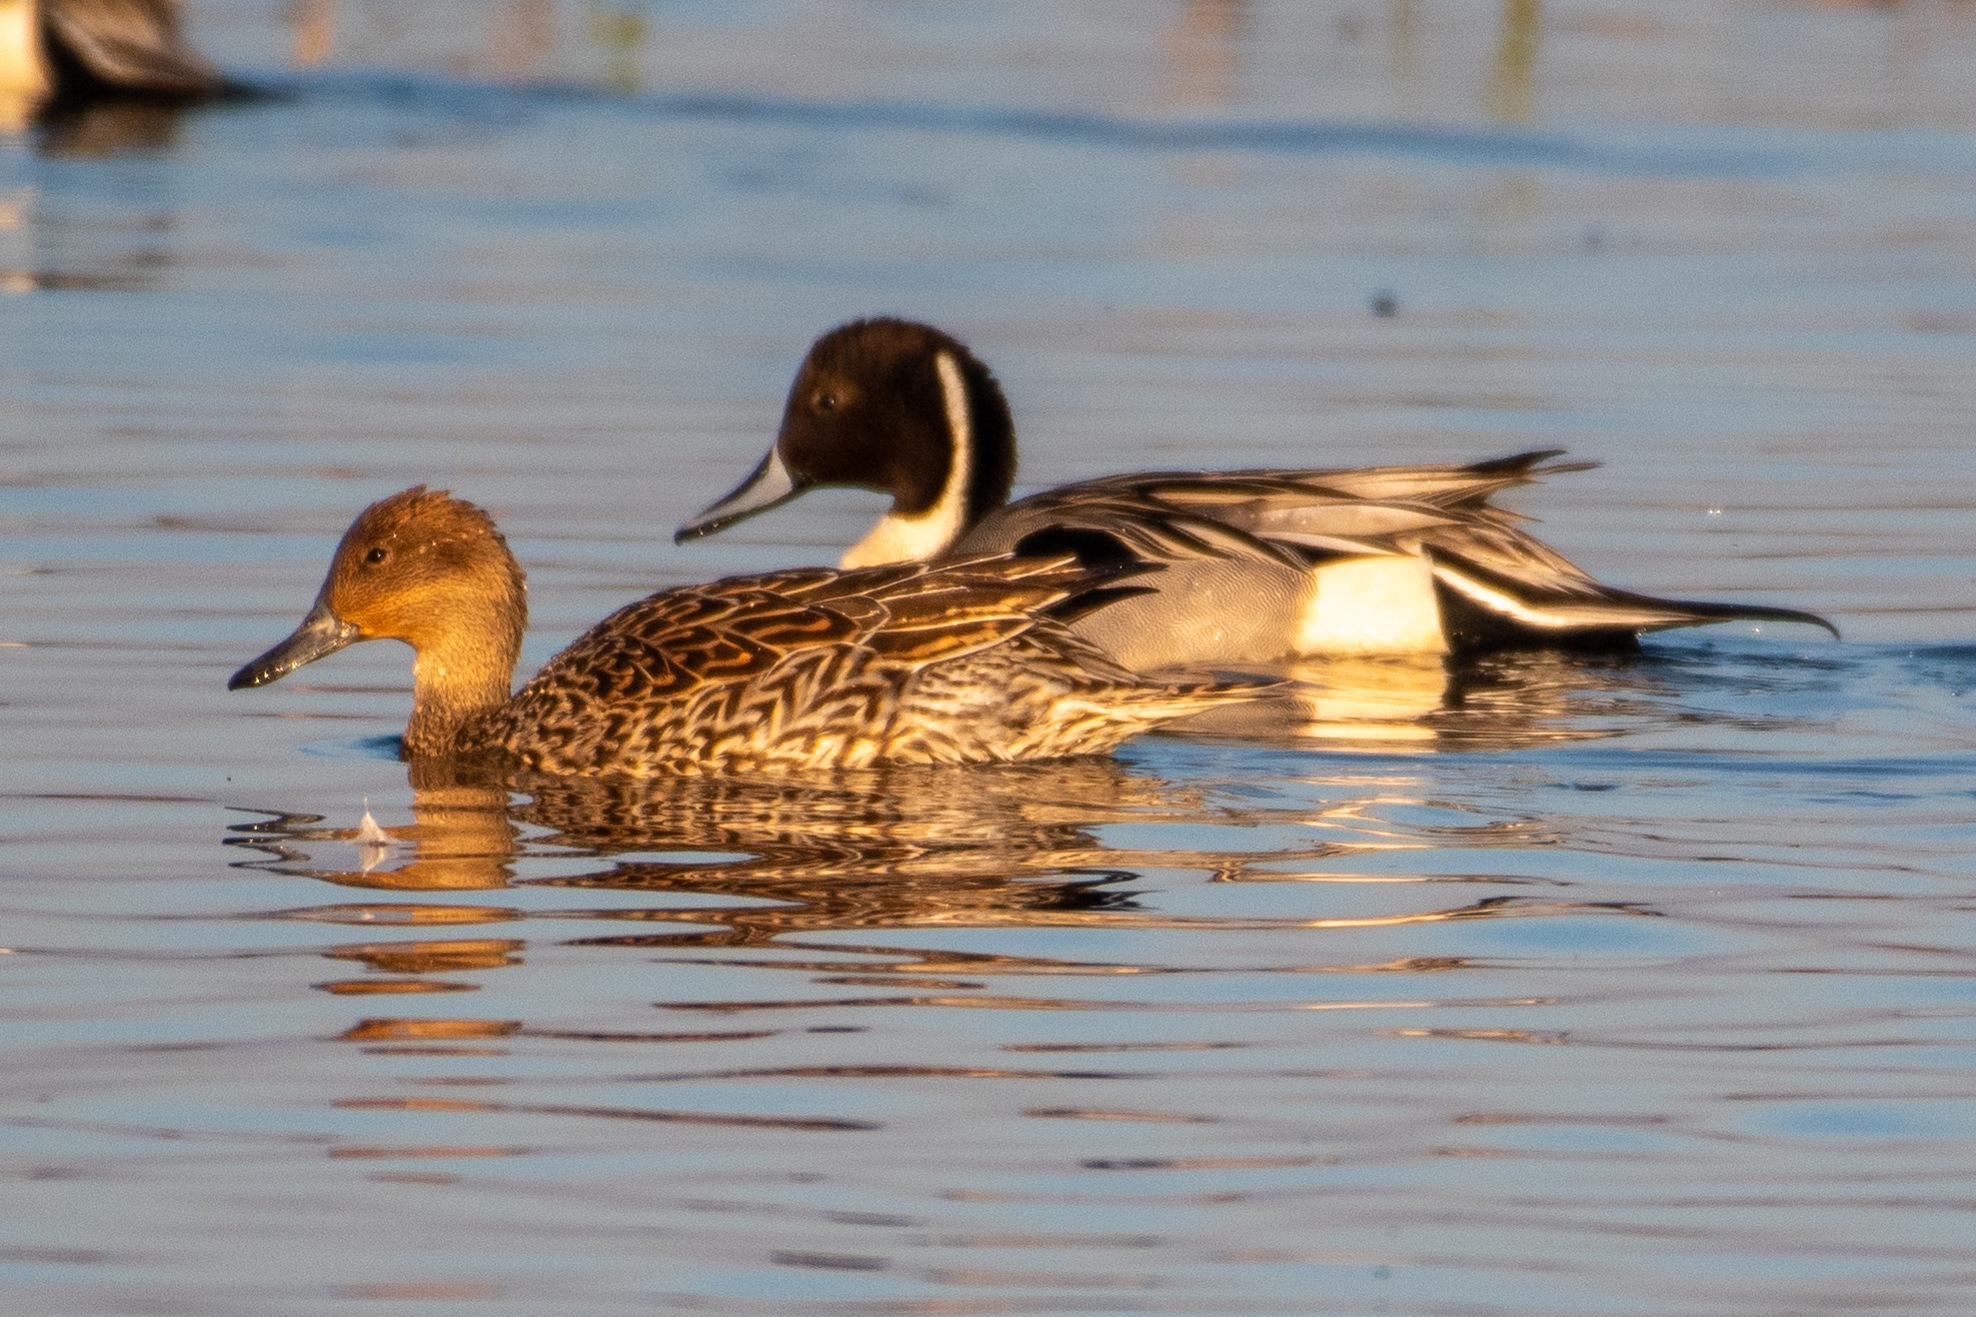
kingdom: Animalia
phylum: Chordata
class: Aves
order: Anseriformes
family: Anatidae
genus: Anas
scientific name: Anas acuta
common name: Northern pintail
